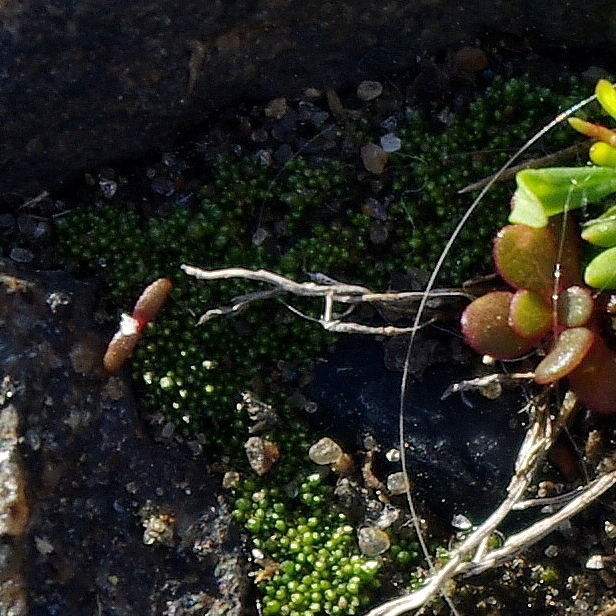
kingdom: Plantae
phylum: Bryophyta
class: Bryopsida
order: Bryales
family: Bryaceae
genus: Bryum
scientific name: Bryum argenteum
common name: Silver-moss
